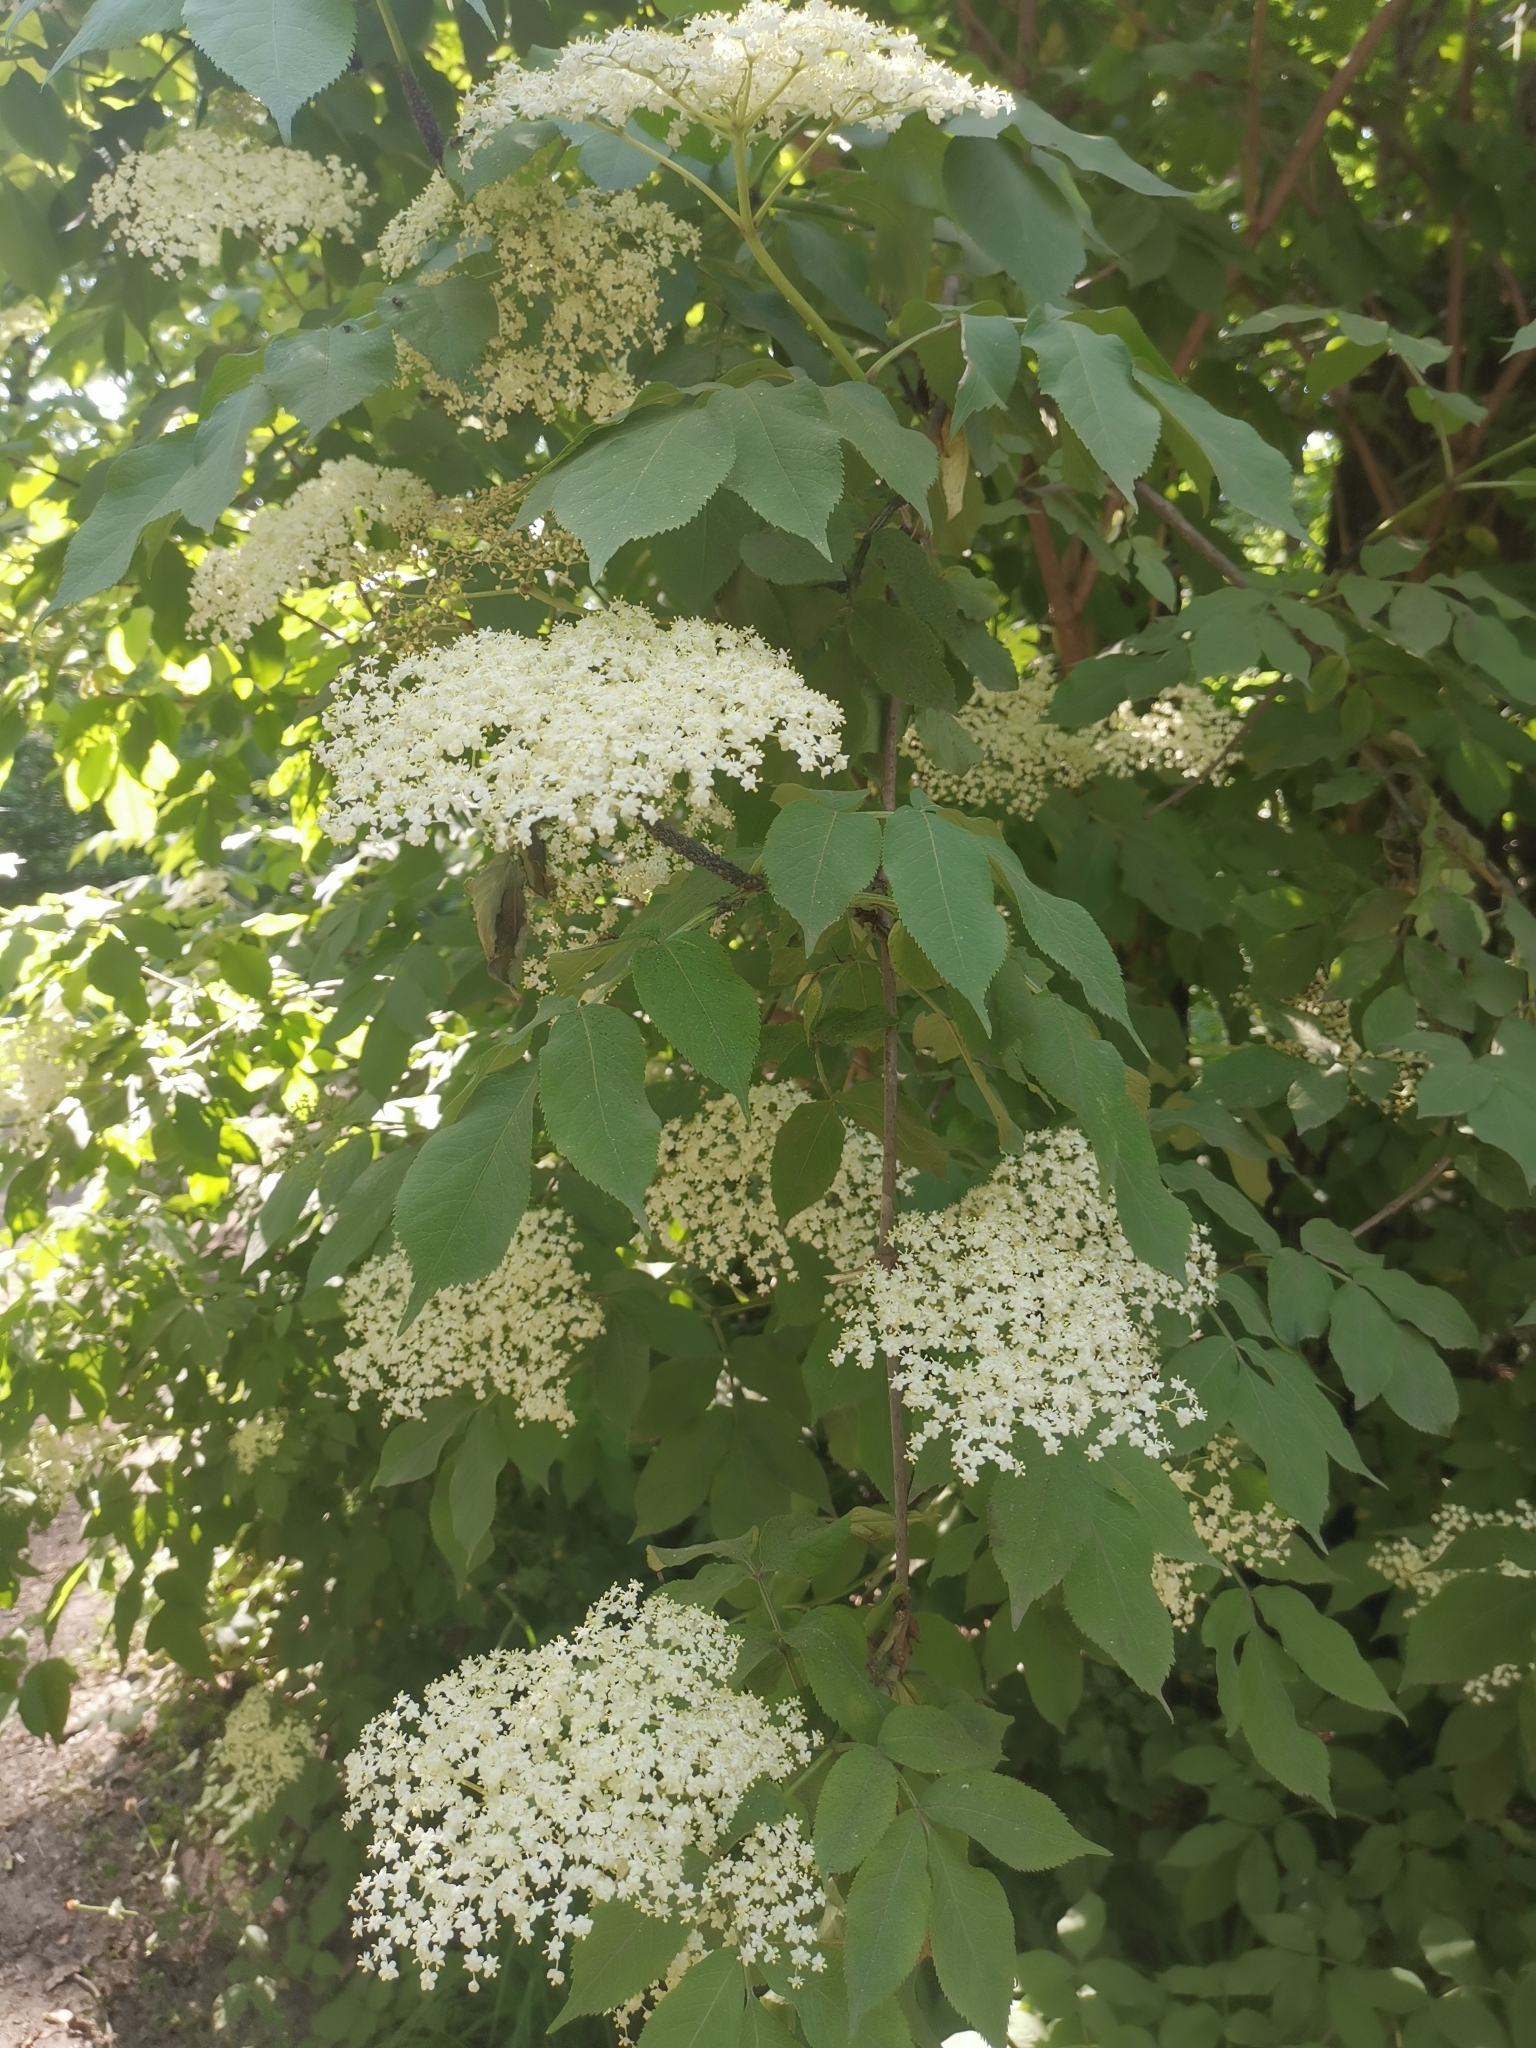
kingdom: Plantae
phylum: Tracheophyta
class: Magnoliopsida
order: Dipsacales
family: Viburnaceae
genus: Sambucus
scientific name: Sambucus nigra
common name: Elder
